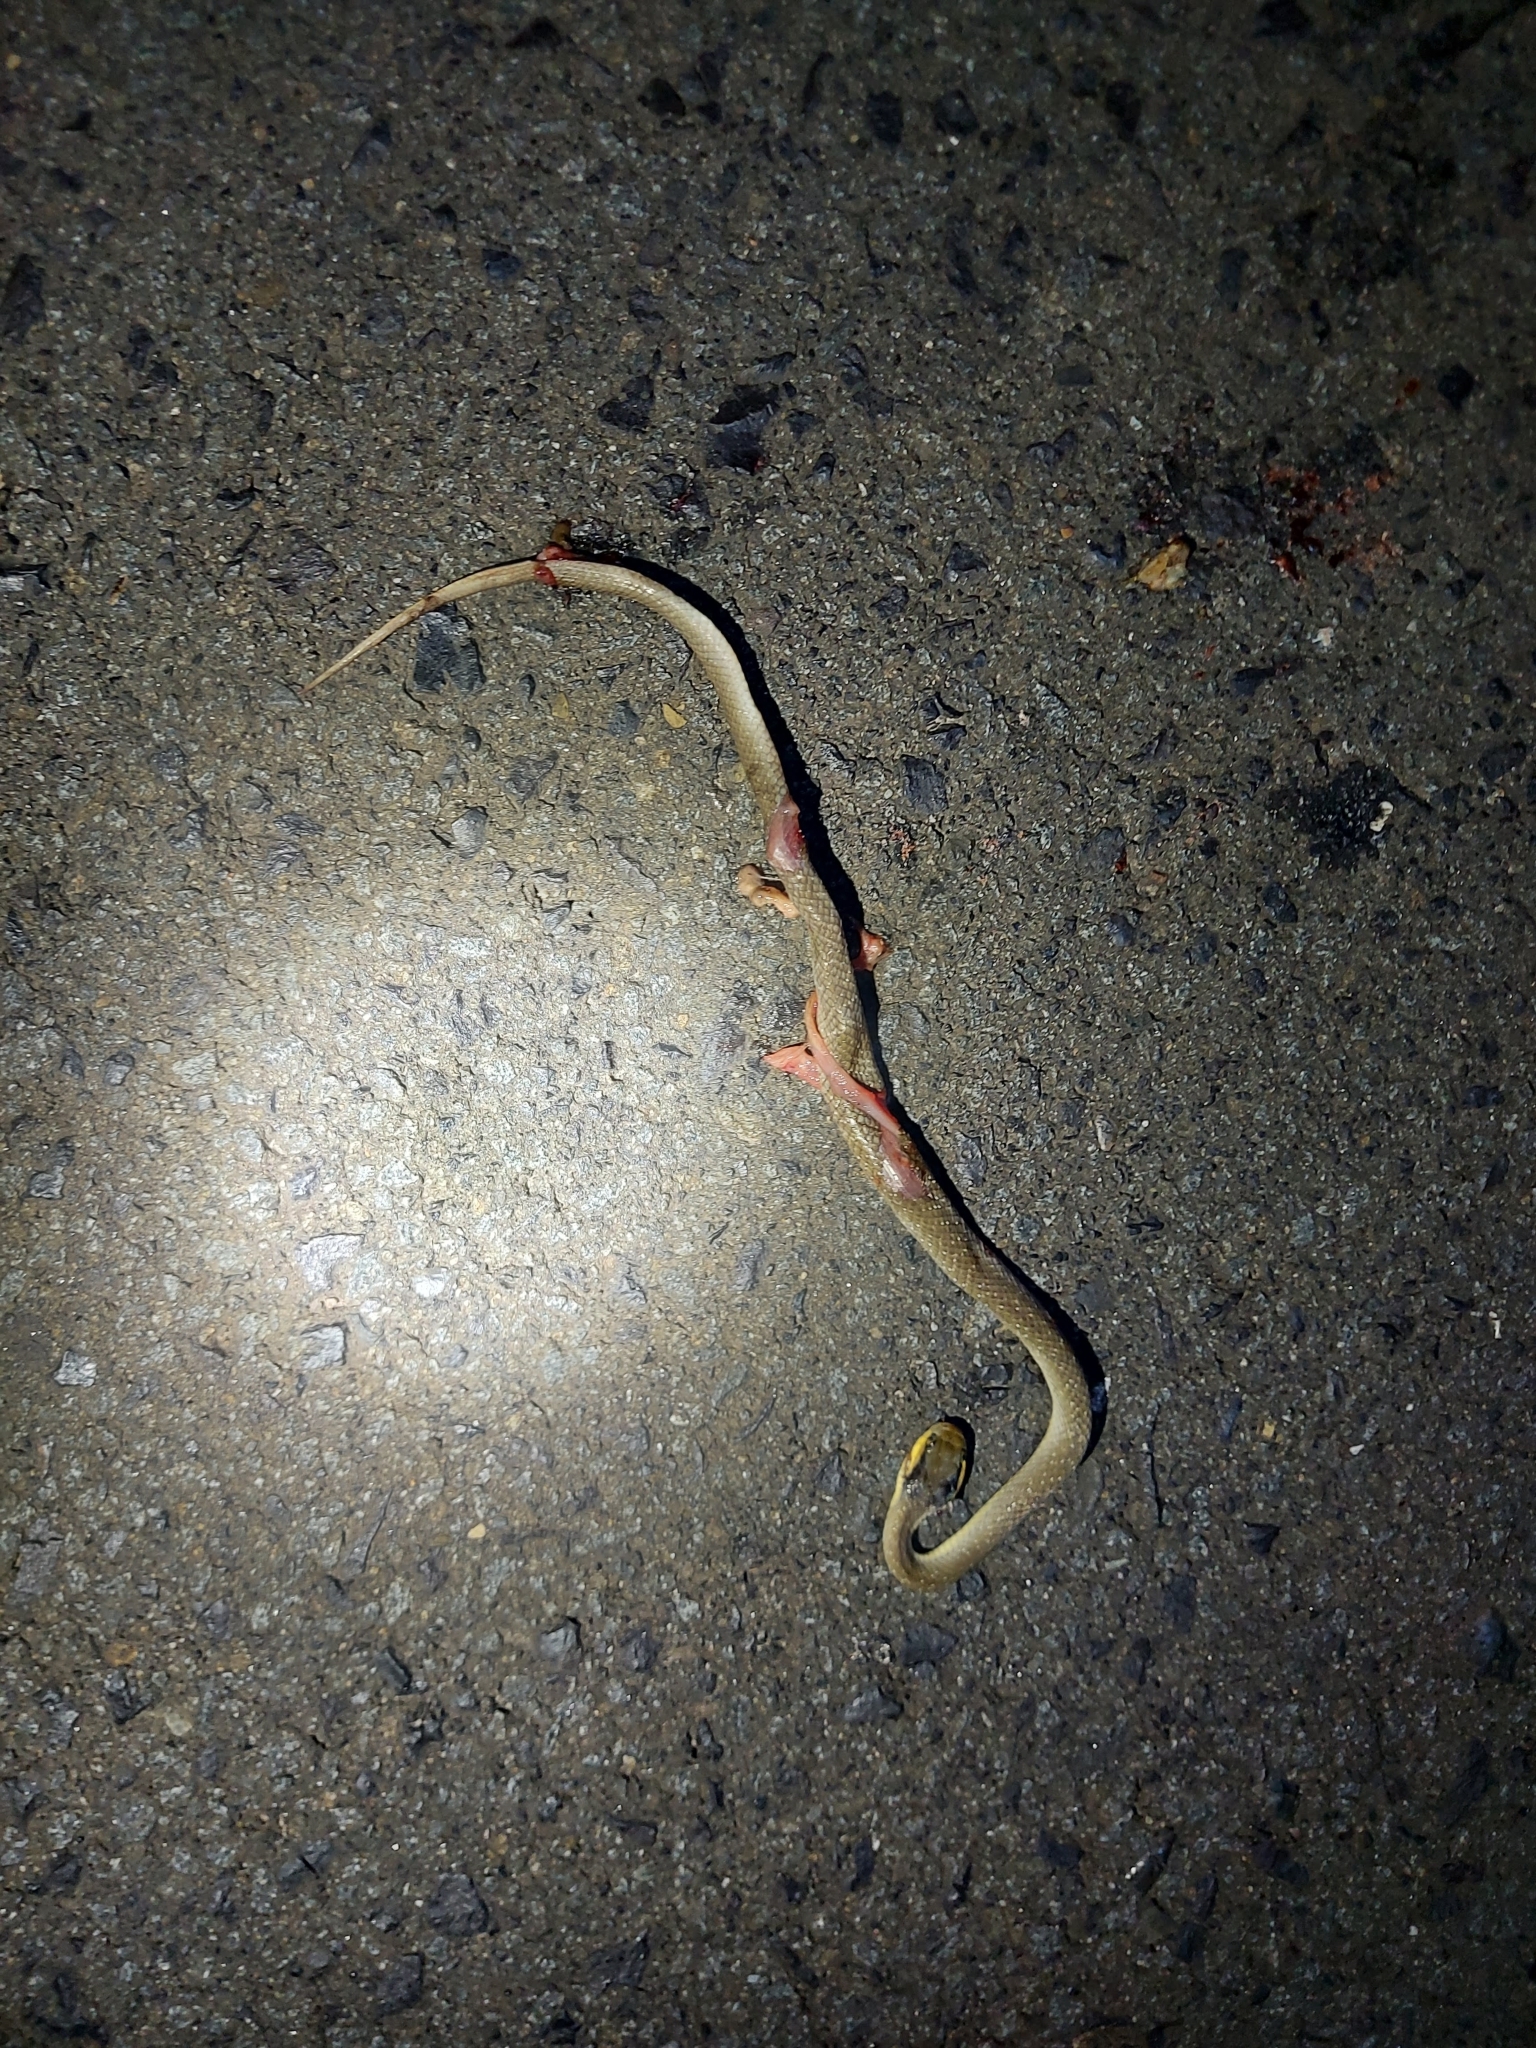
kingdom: Animalia
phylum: Chordata
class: Squamata
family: Colubridae
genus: Crotaphopeltis
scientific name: Crotaphopeltis hotamboeia
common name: Red-lipped snake
